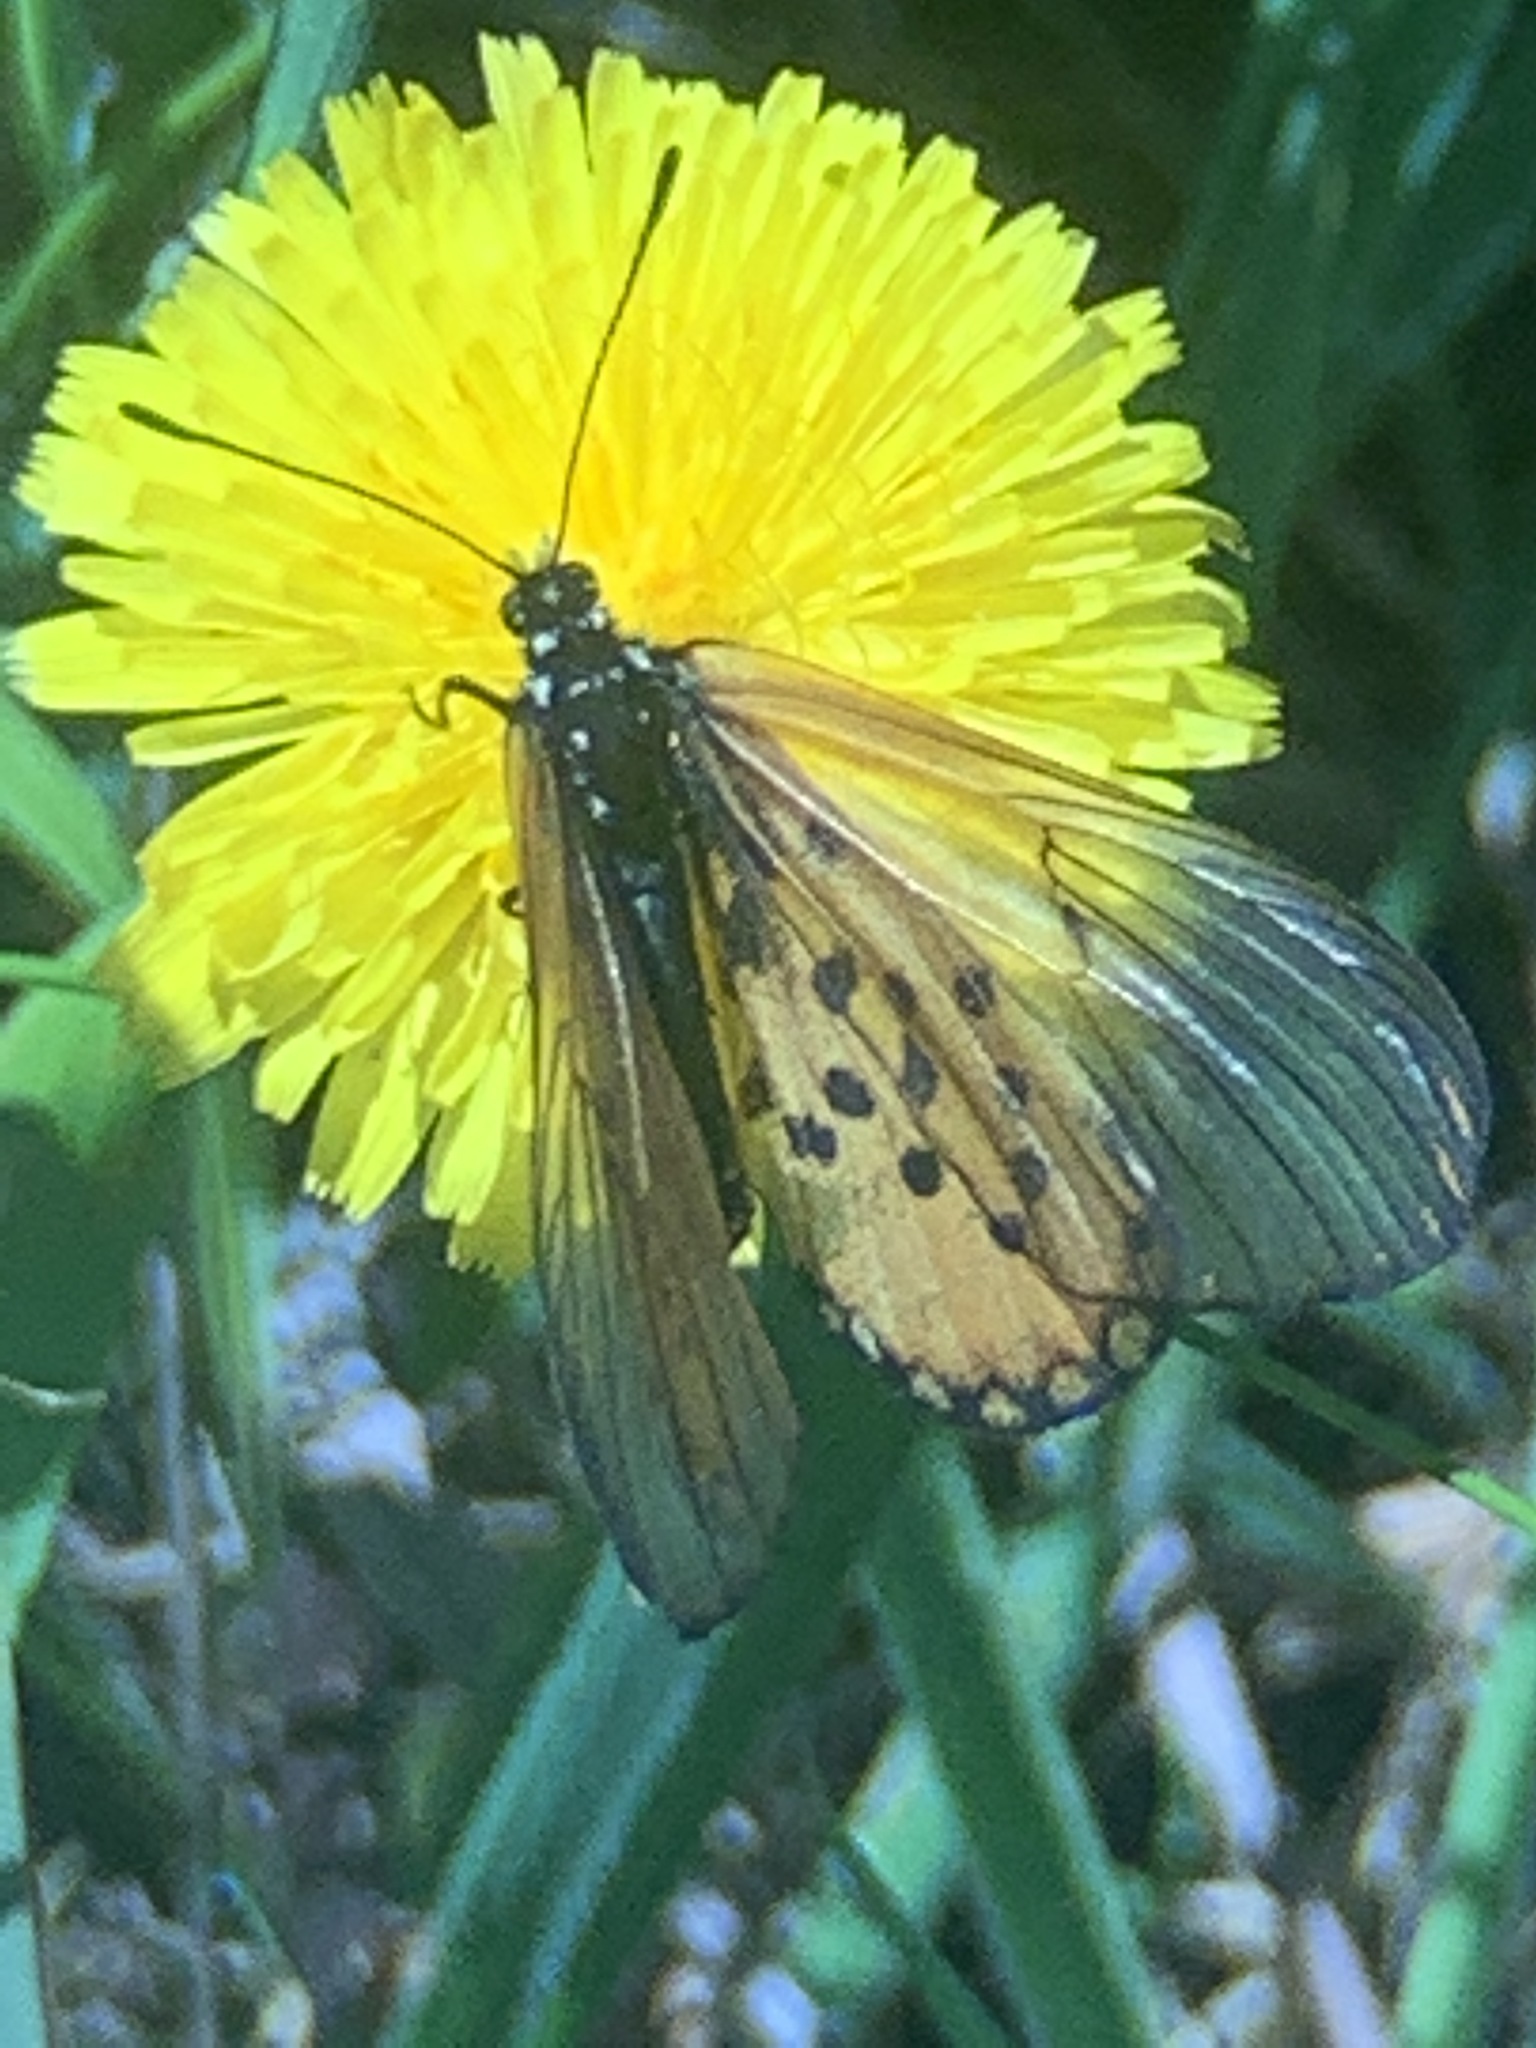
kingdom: Animalia
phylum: Arthropoda
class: Insecta
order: Lepidoptera
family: Nymphalidae
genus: Acraea
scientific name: Acraea horta
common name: Garden acraea
